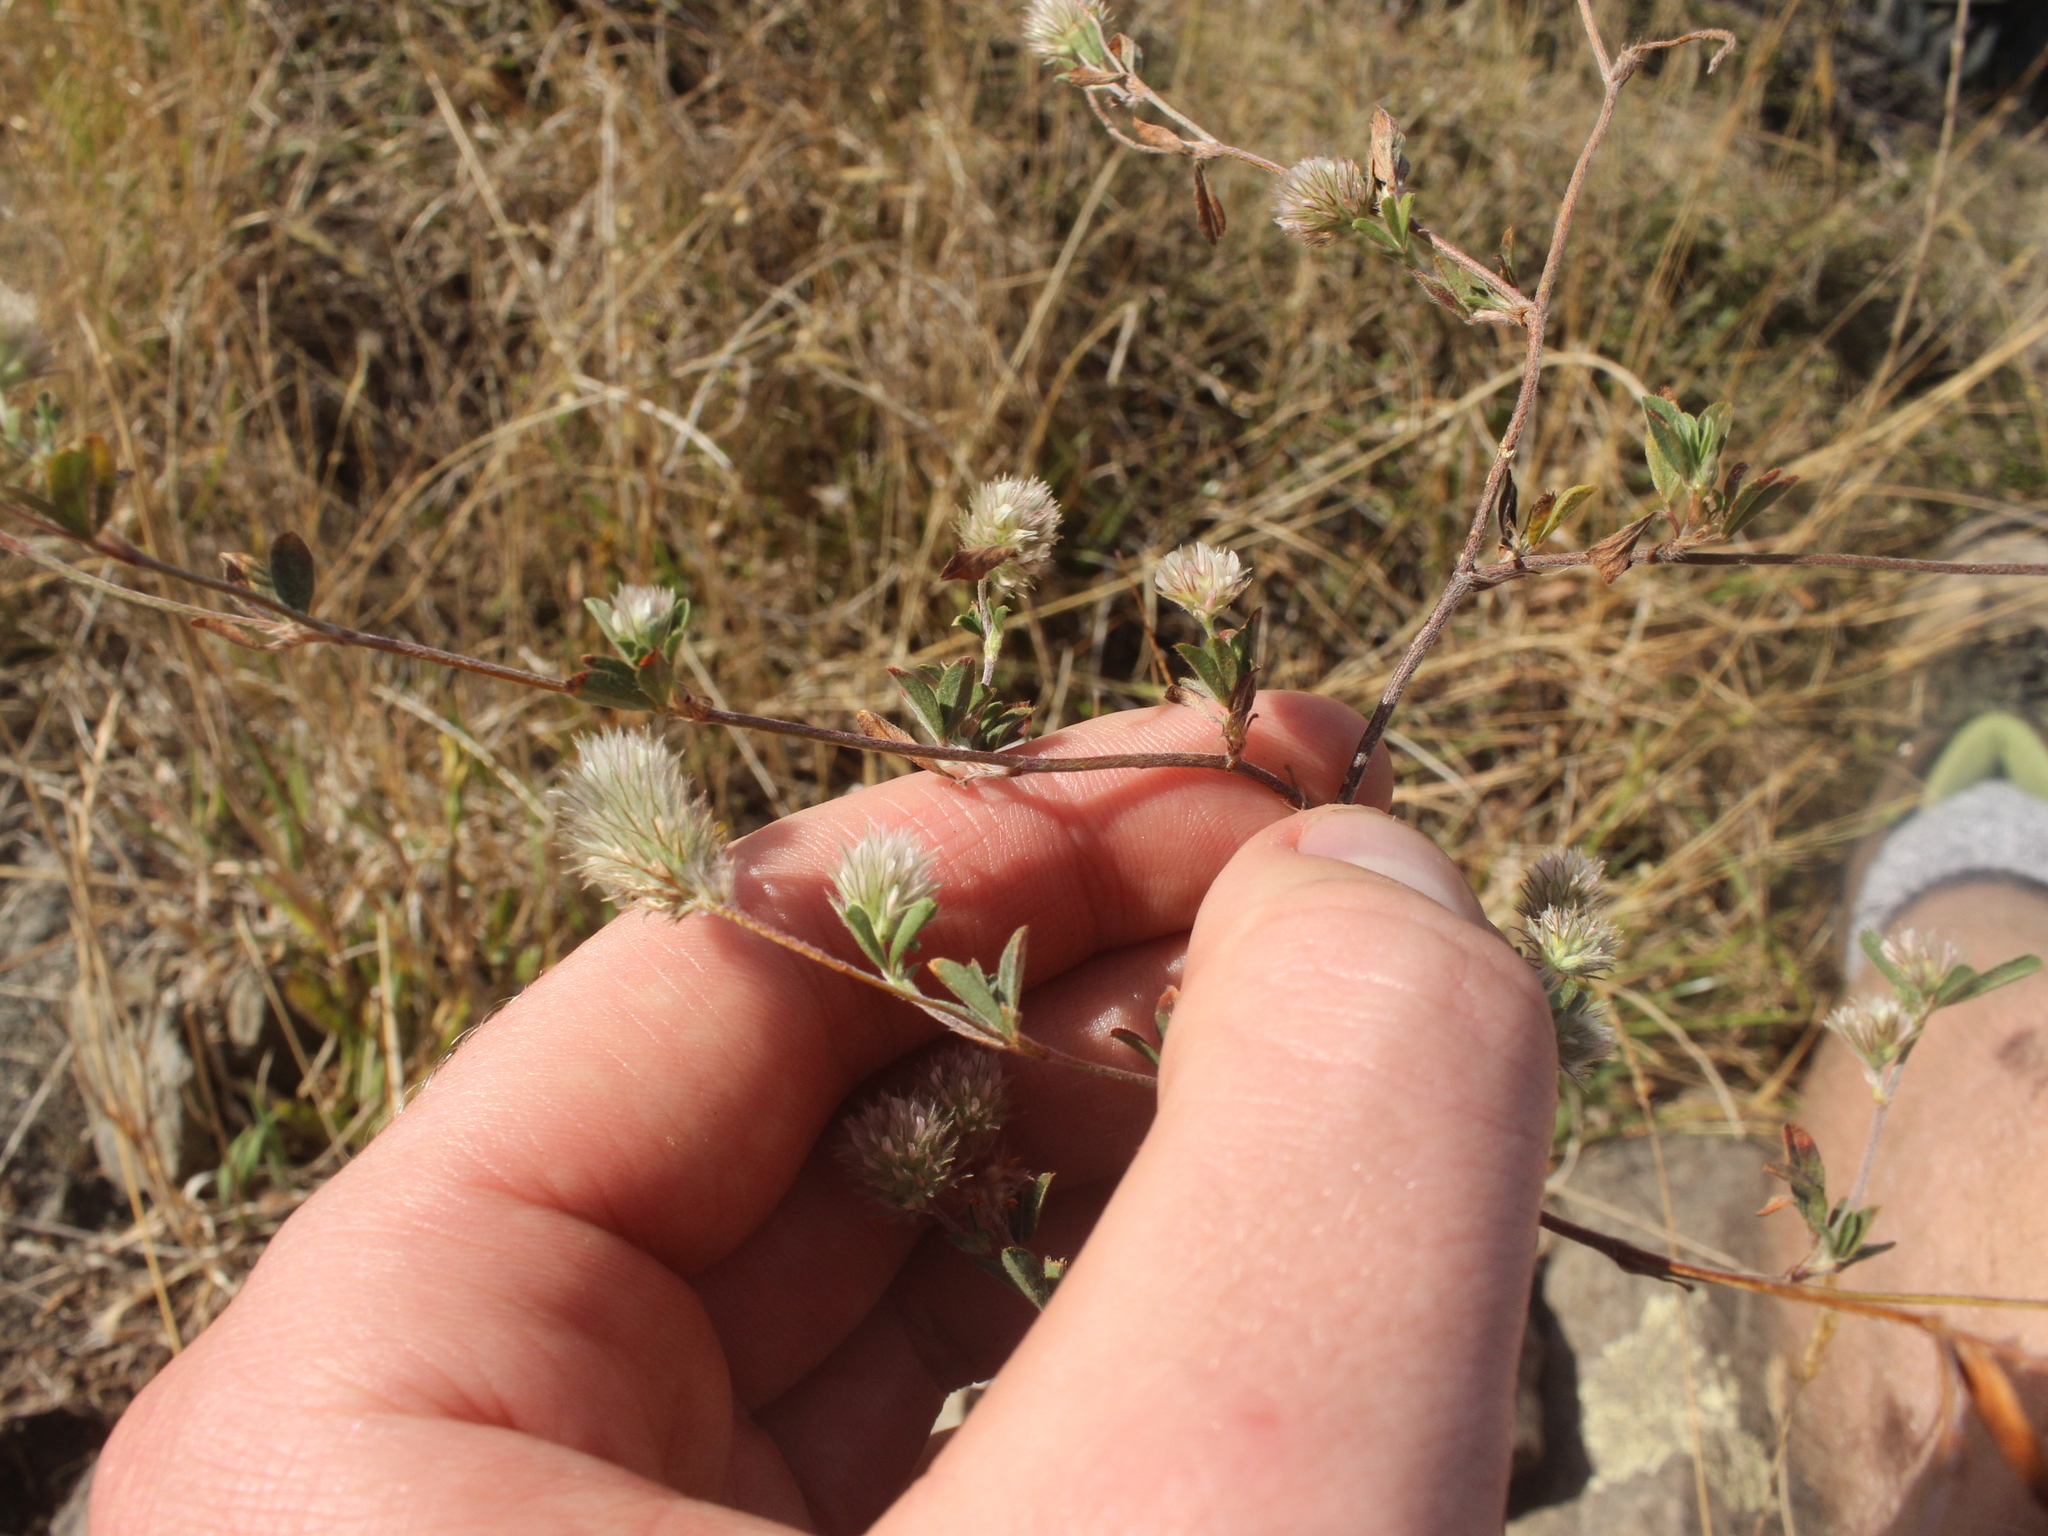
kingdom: Plantae
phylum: Tracheophyta
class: Magnoliopsida
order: Fabales
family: Fabaceae
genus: Trifolium
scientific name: Trifolium arvense
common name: Hare's-foot clover
